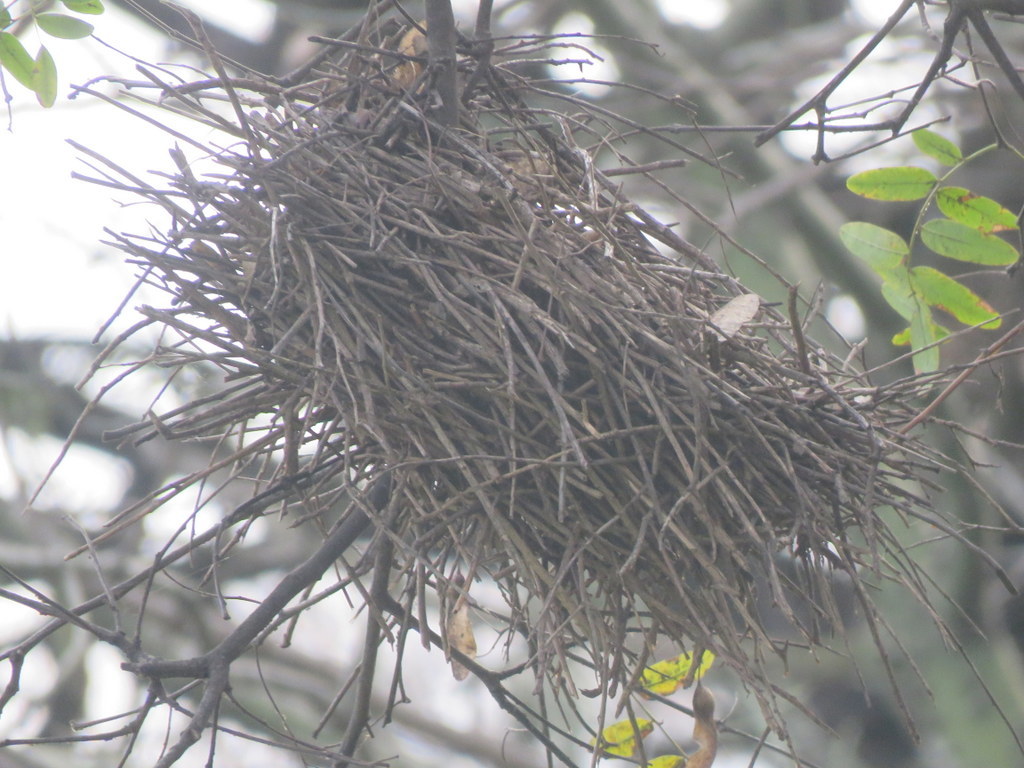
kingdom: Animalia
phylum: Chordata
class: Aves
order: Passeriformes
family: Furnariidae
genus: Phacellodomus
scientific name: Phacellodomus sibilatrix
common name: Little thornbird
